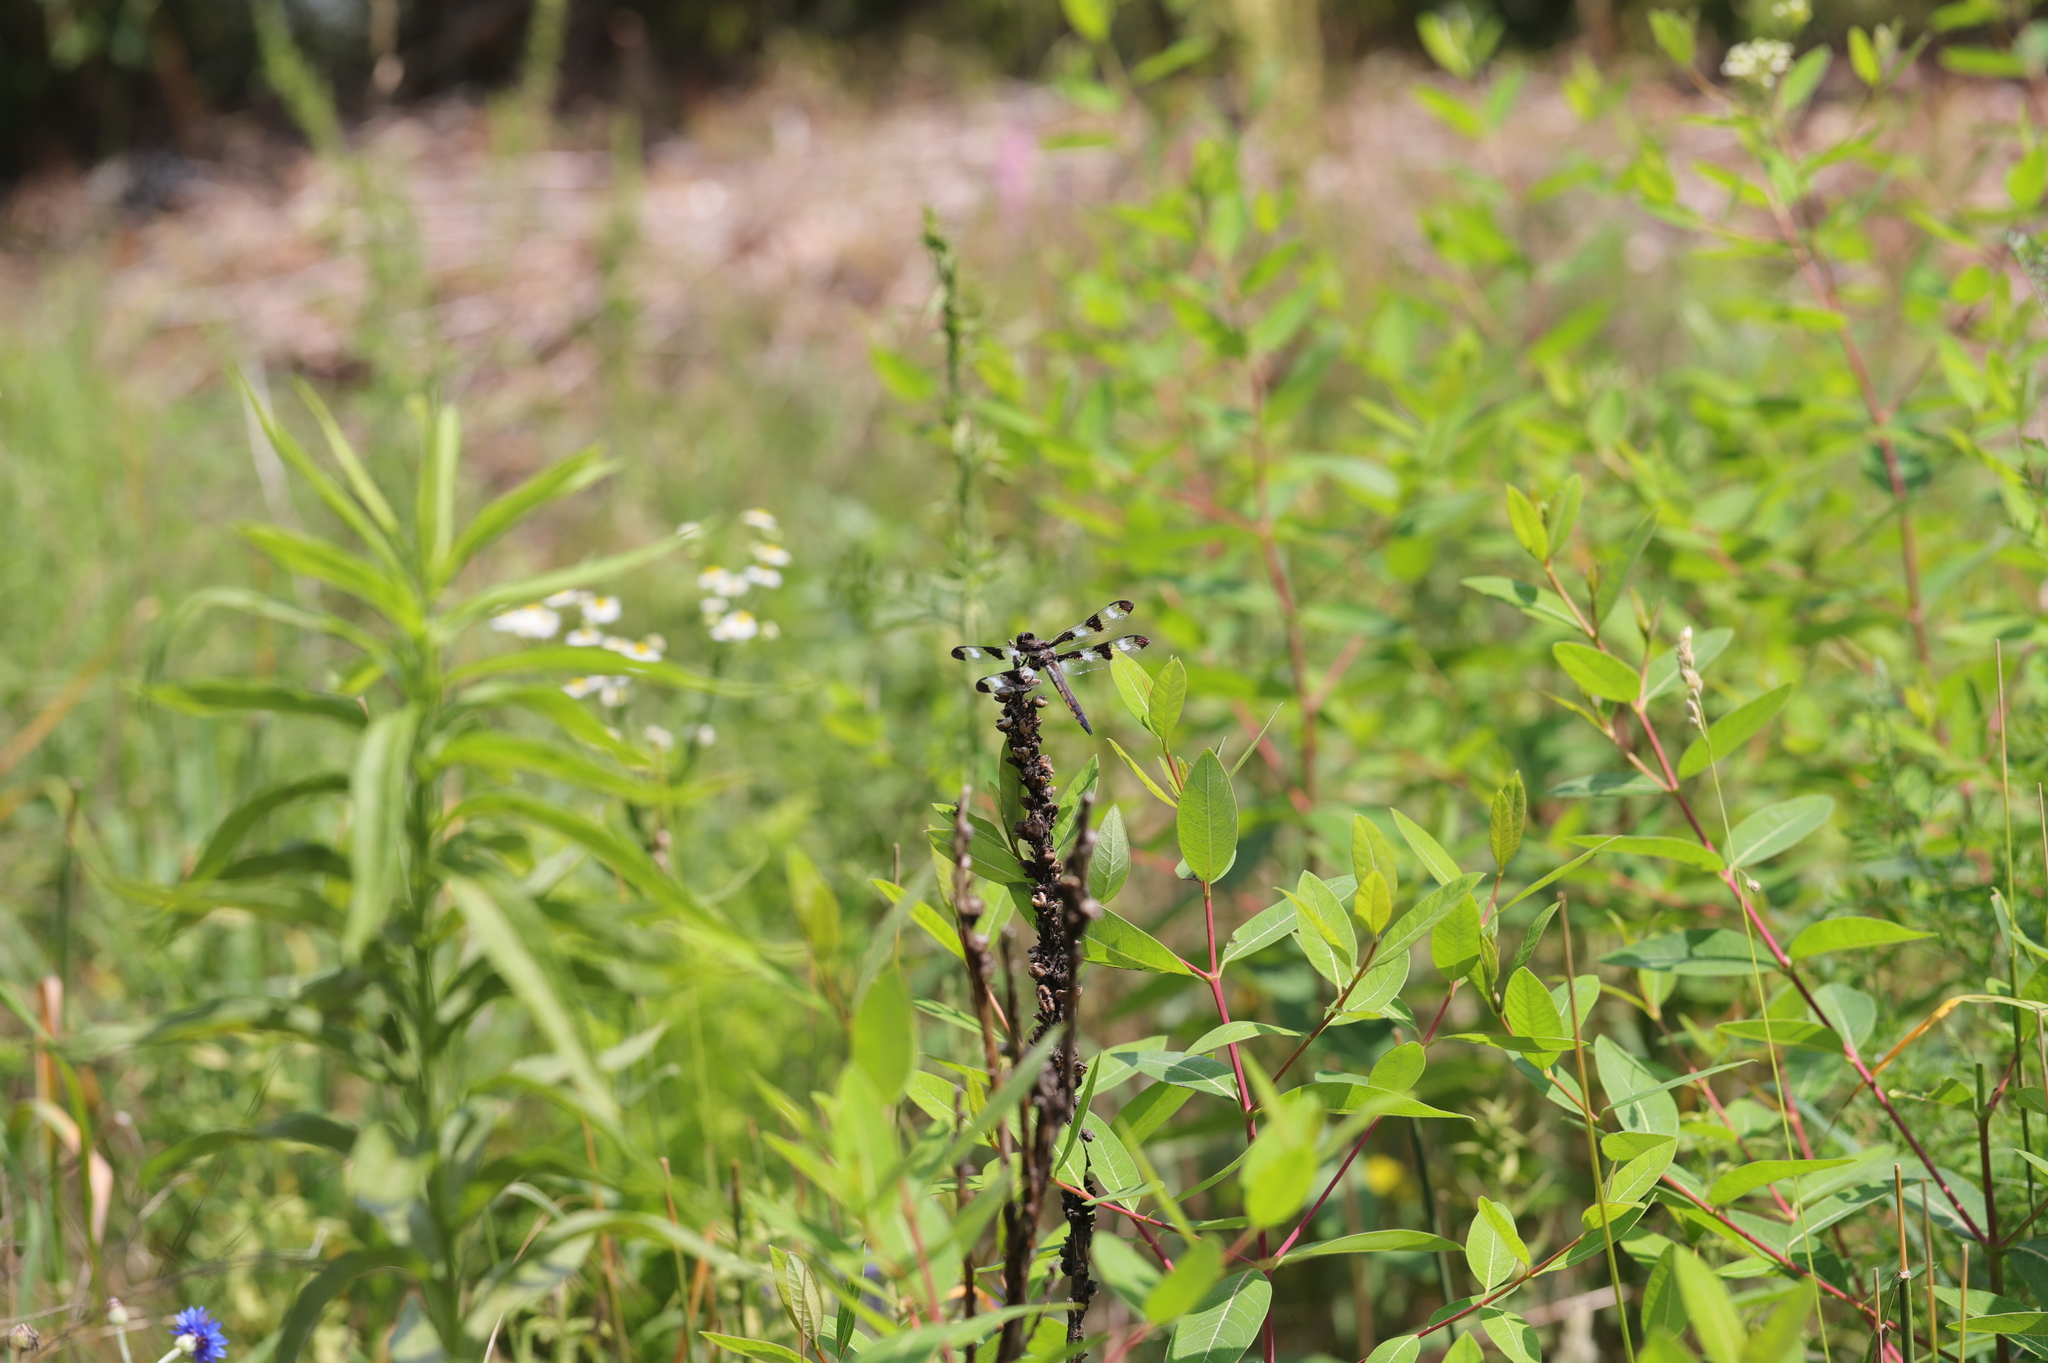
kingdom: Animalia
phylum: Arthropoda
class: Insecta
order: Odonata
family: Libellulidae
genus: Libellula
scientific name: Libellula pulchella
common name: Twelve-spotted skimmer
